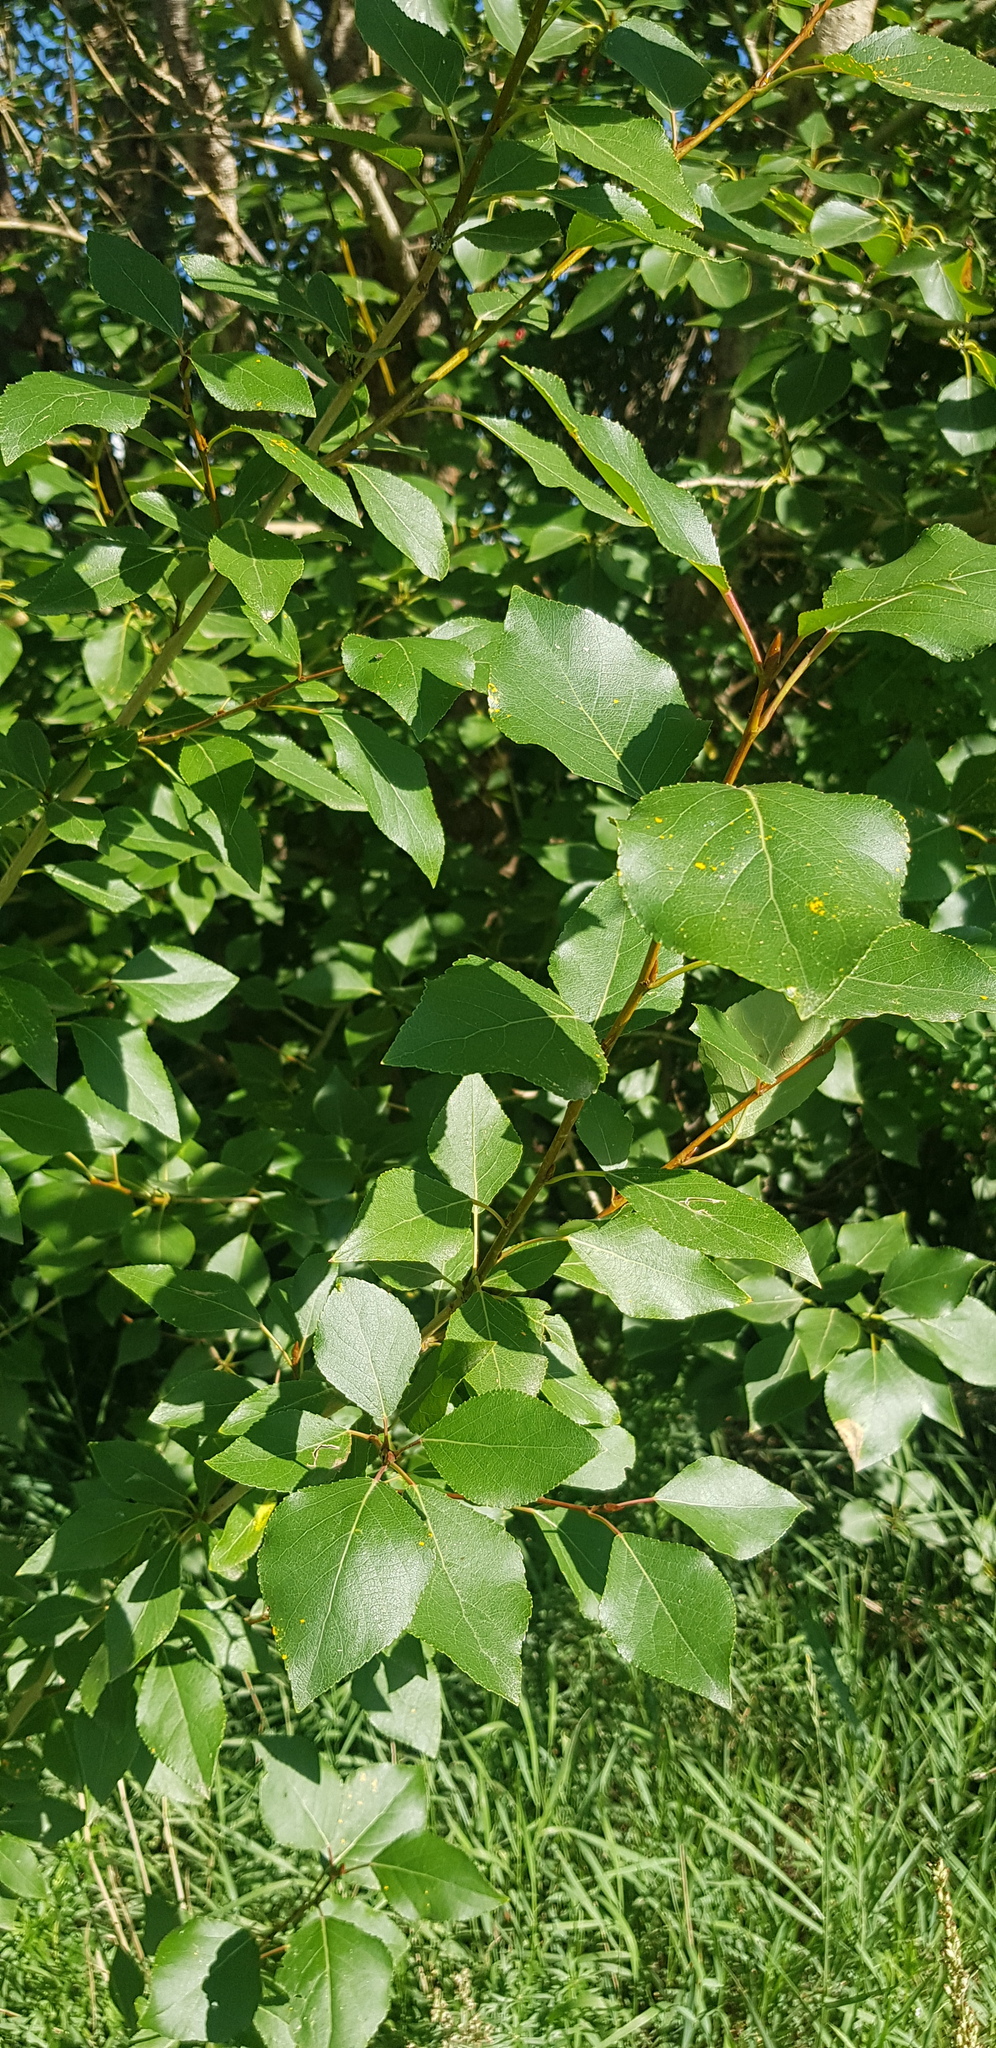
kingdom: Plantae
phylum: Tracheophyta
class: Magnoliopsida
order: Malpighiales
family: Salicaceae
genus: Populus
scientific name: Populus laurifolia
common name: Laurel-leaf poplar
